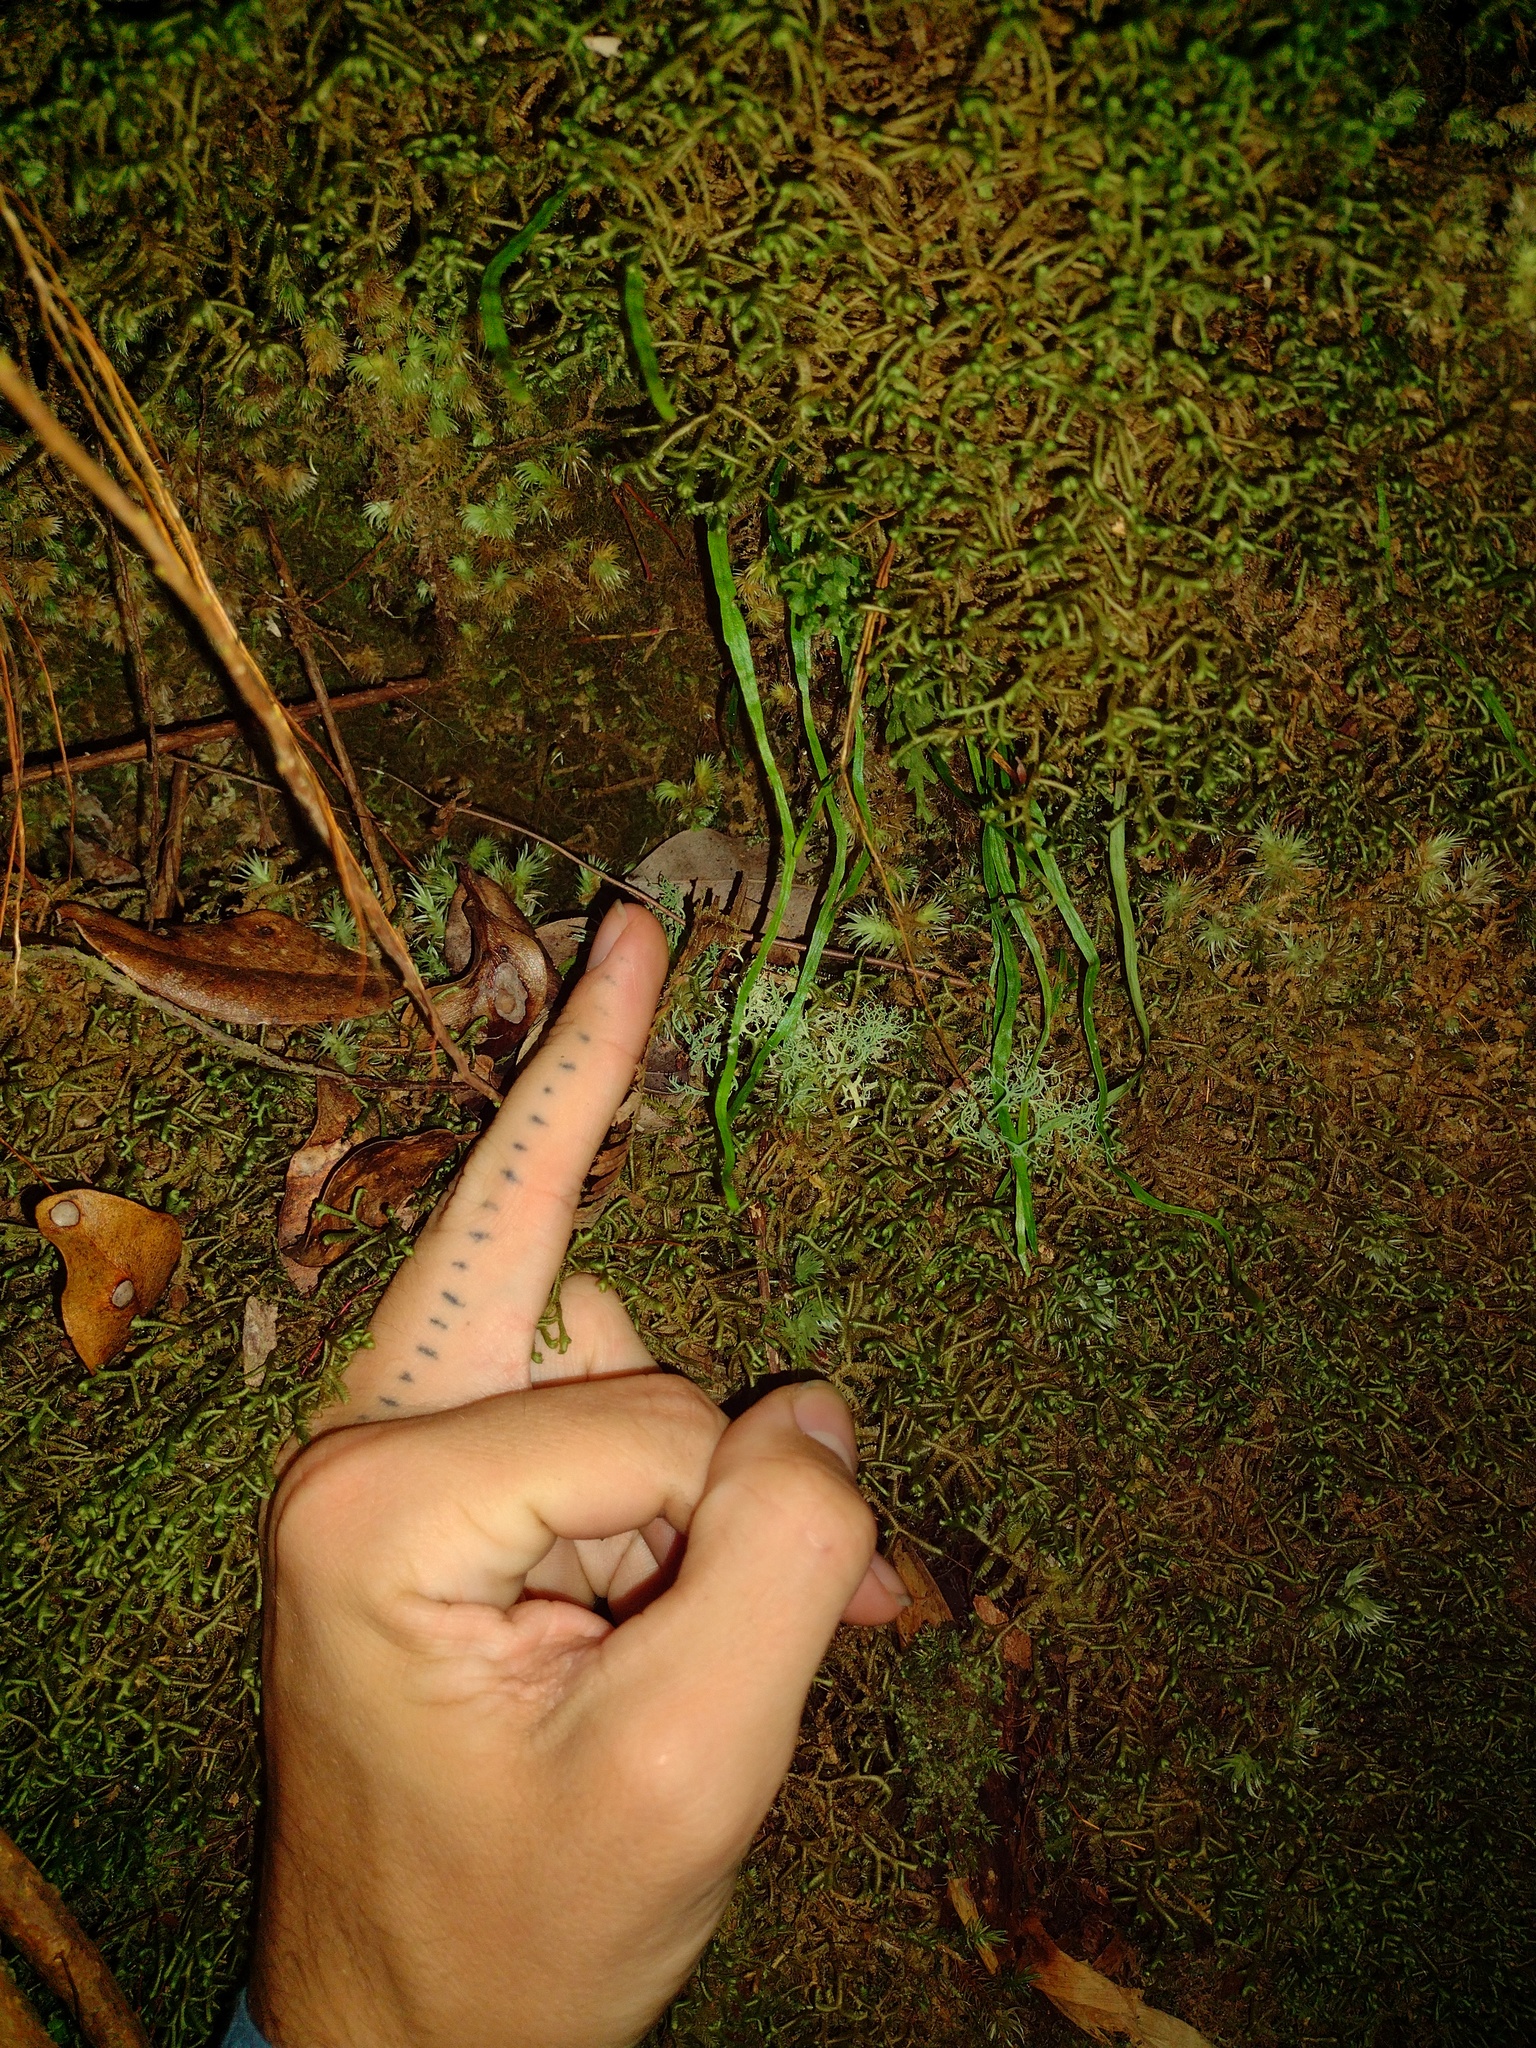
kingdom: Plantae
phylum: Tracheophyta
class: Polypodiopsida
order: Polypodiales
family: Polypodiaceae
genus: Adenophorus
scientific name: Adenophorus tenellus
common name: Kolokolo
